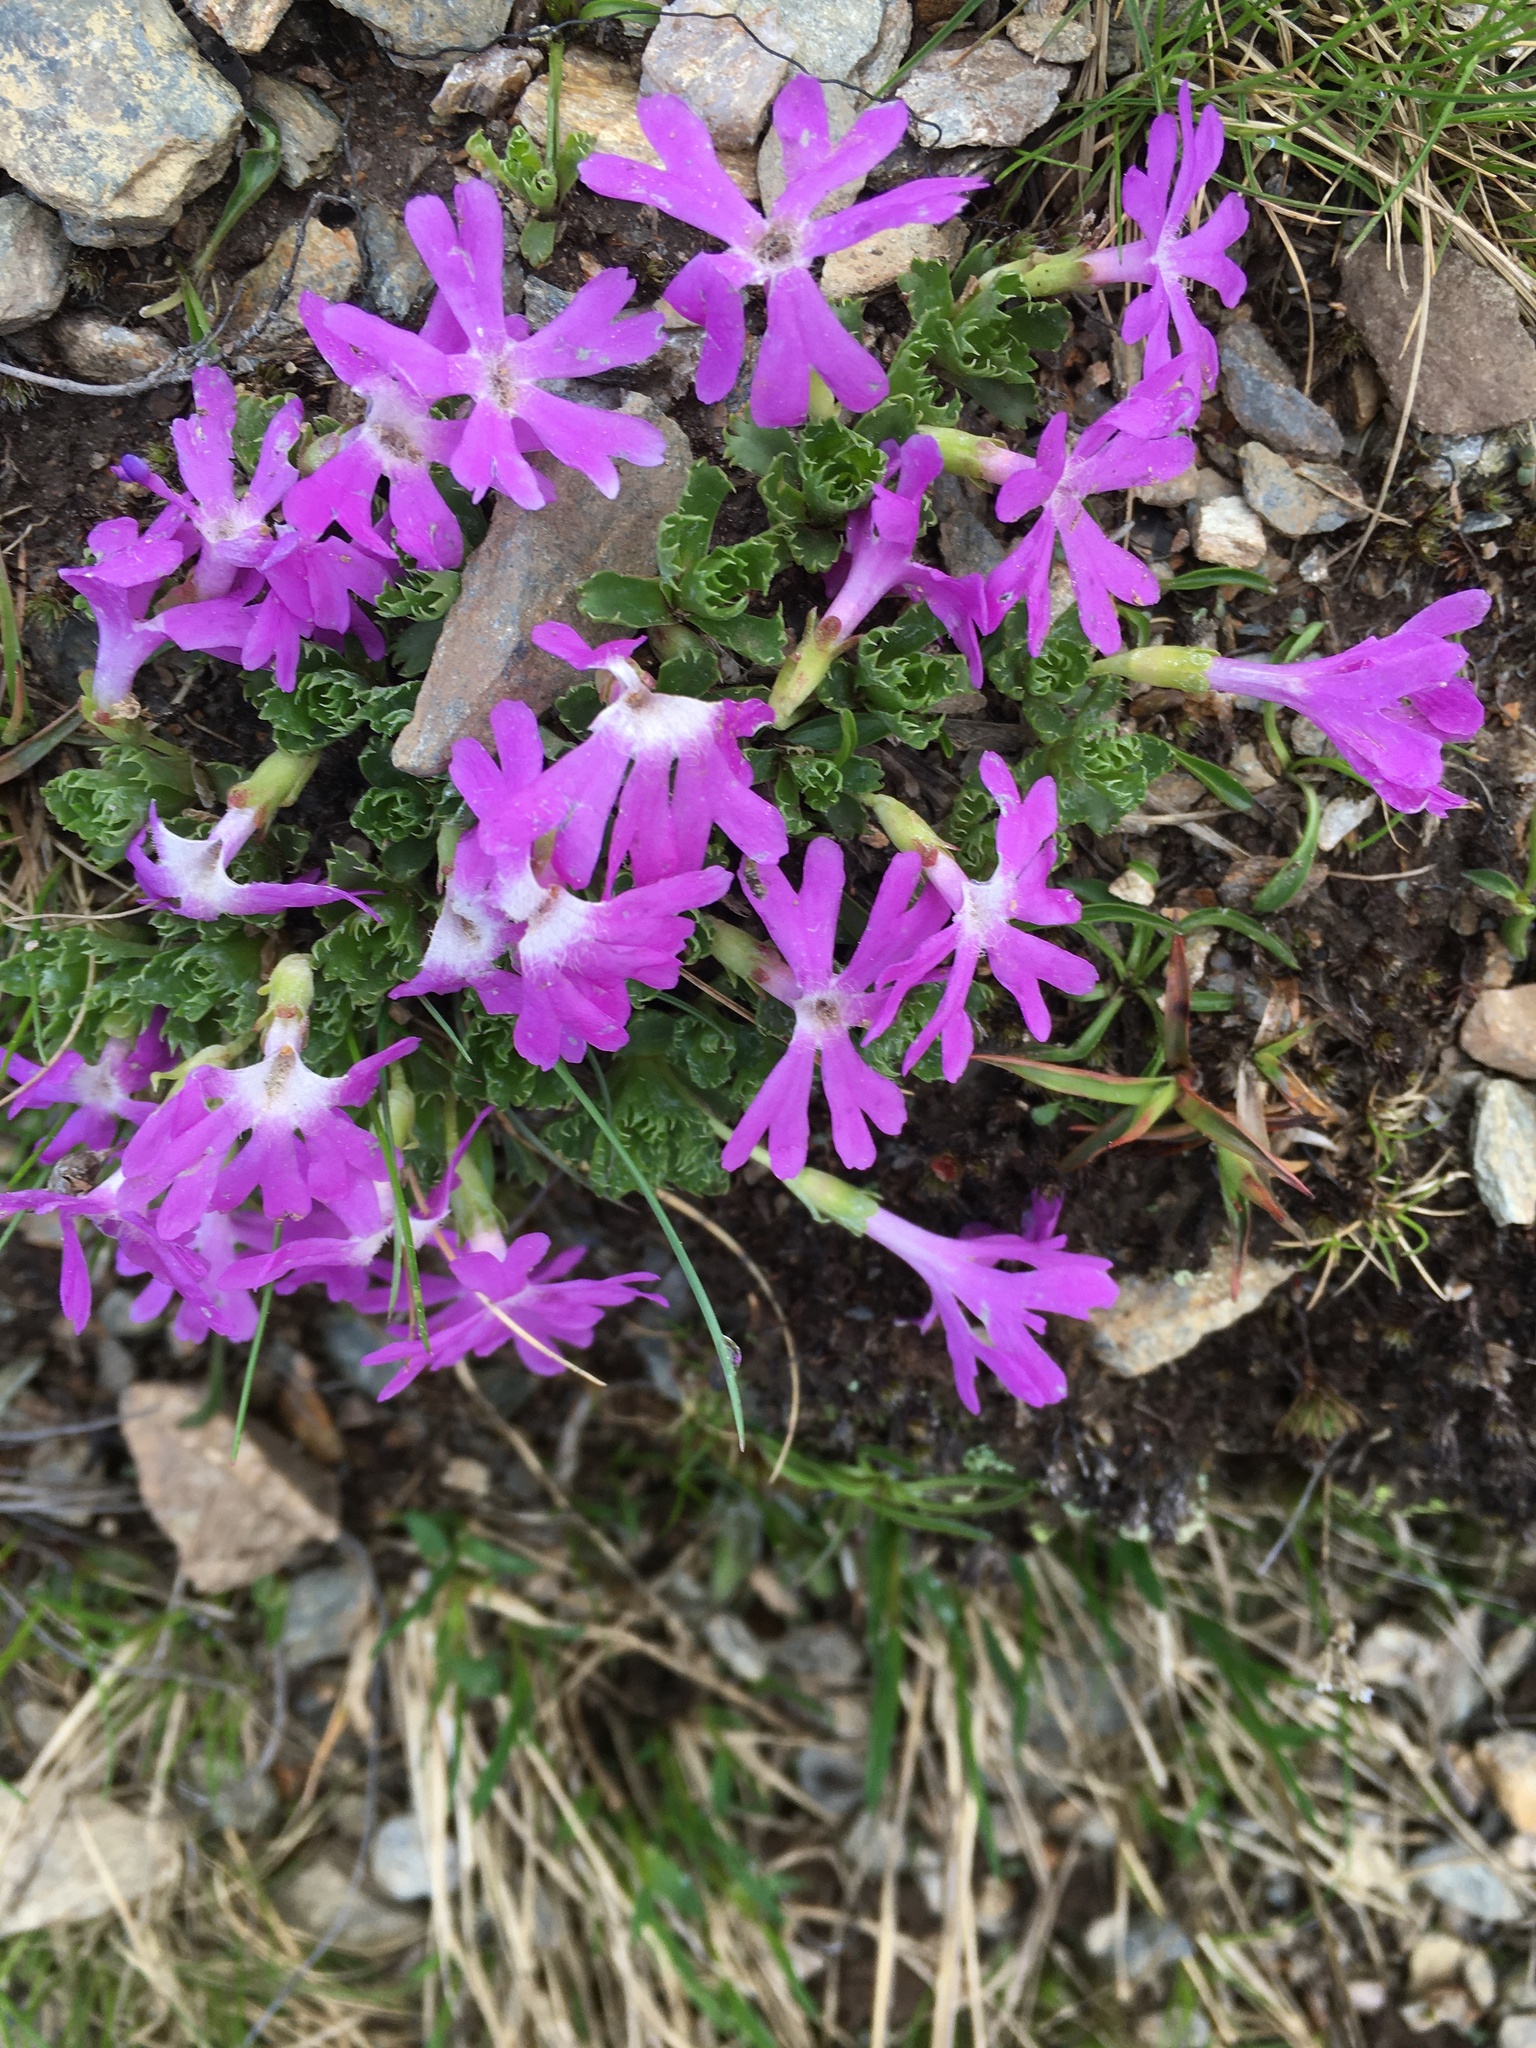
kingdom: Plantae
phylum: Tracheophyta
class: Magnoliopsida
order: Ericales
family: Primulaceae
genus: Primula
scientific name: Primula minima
